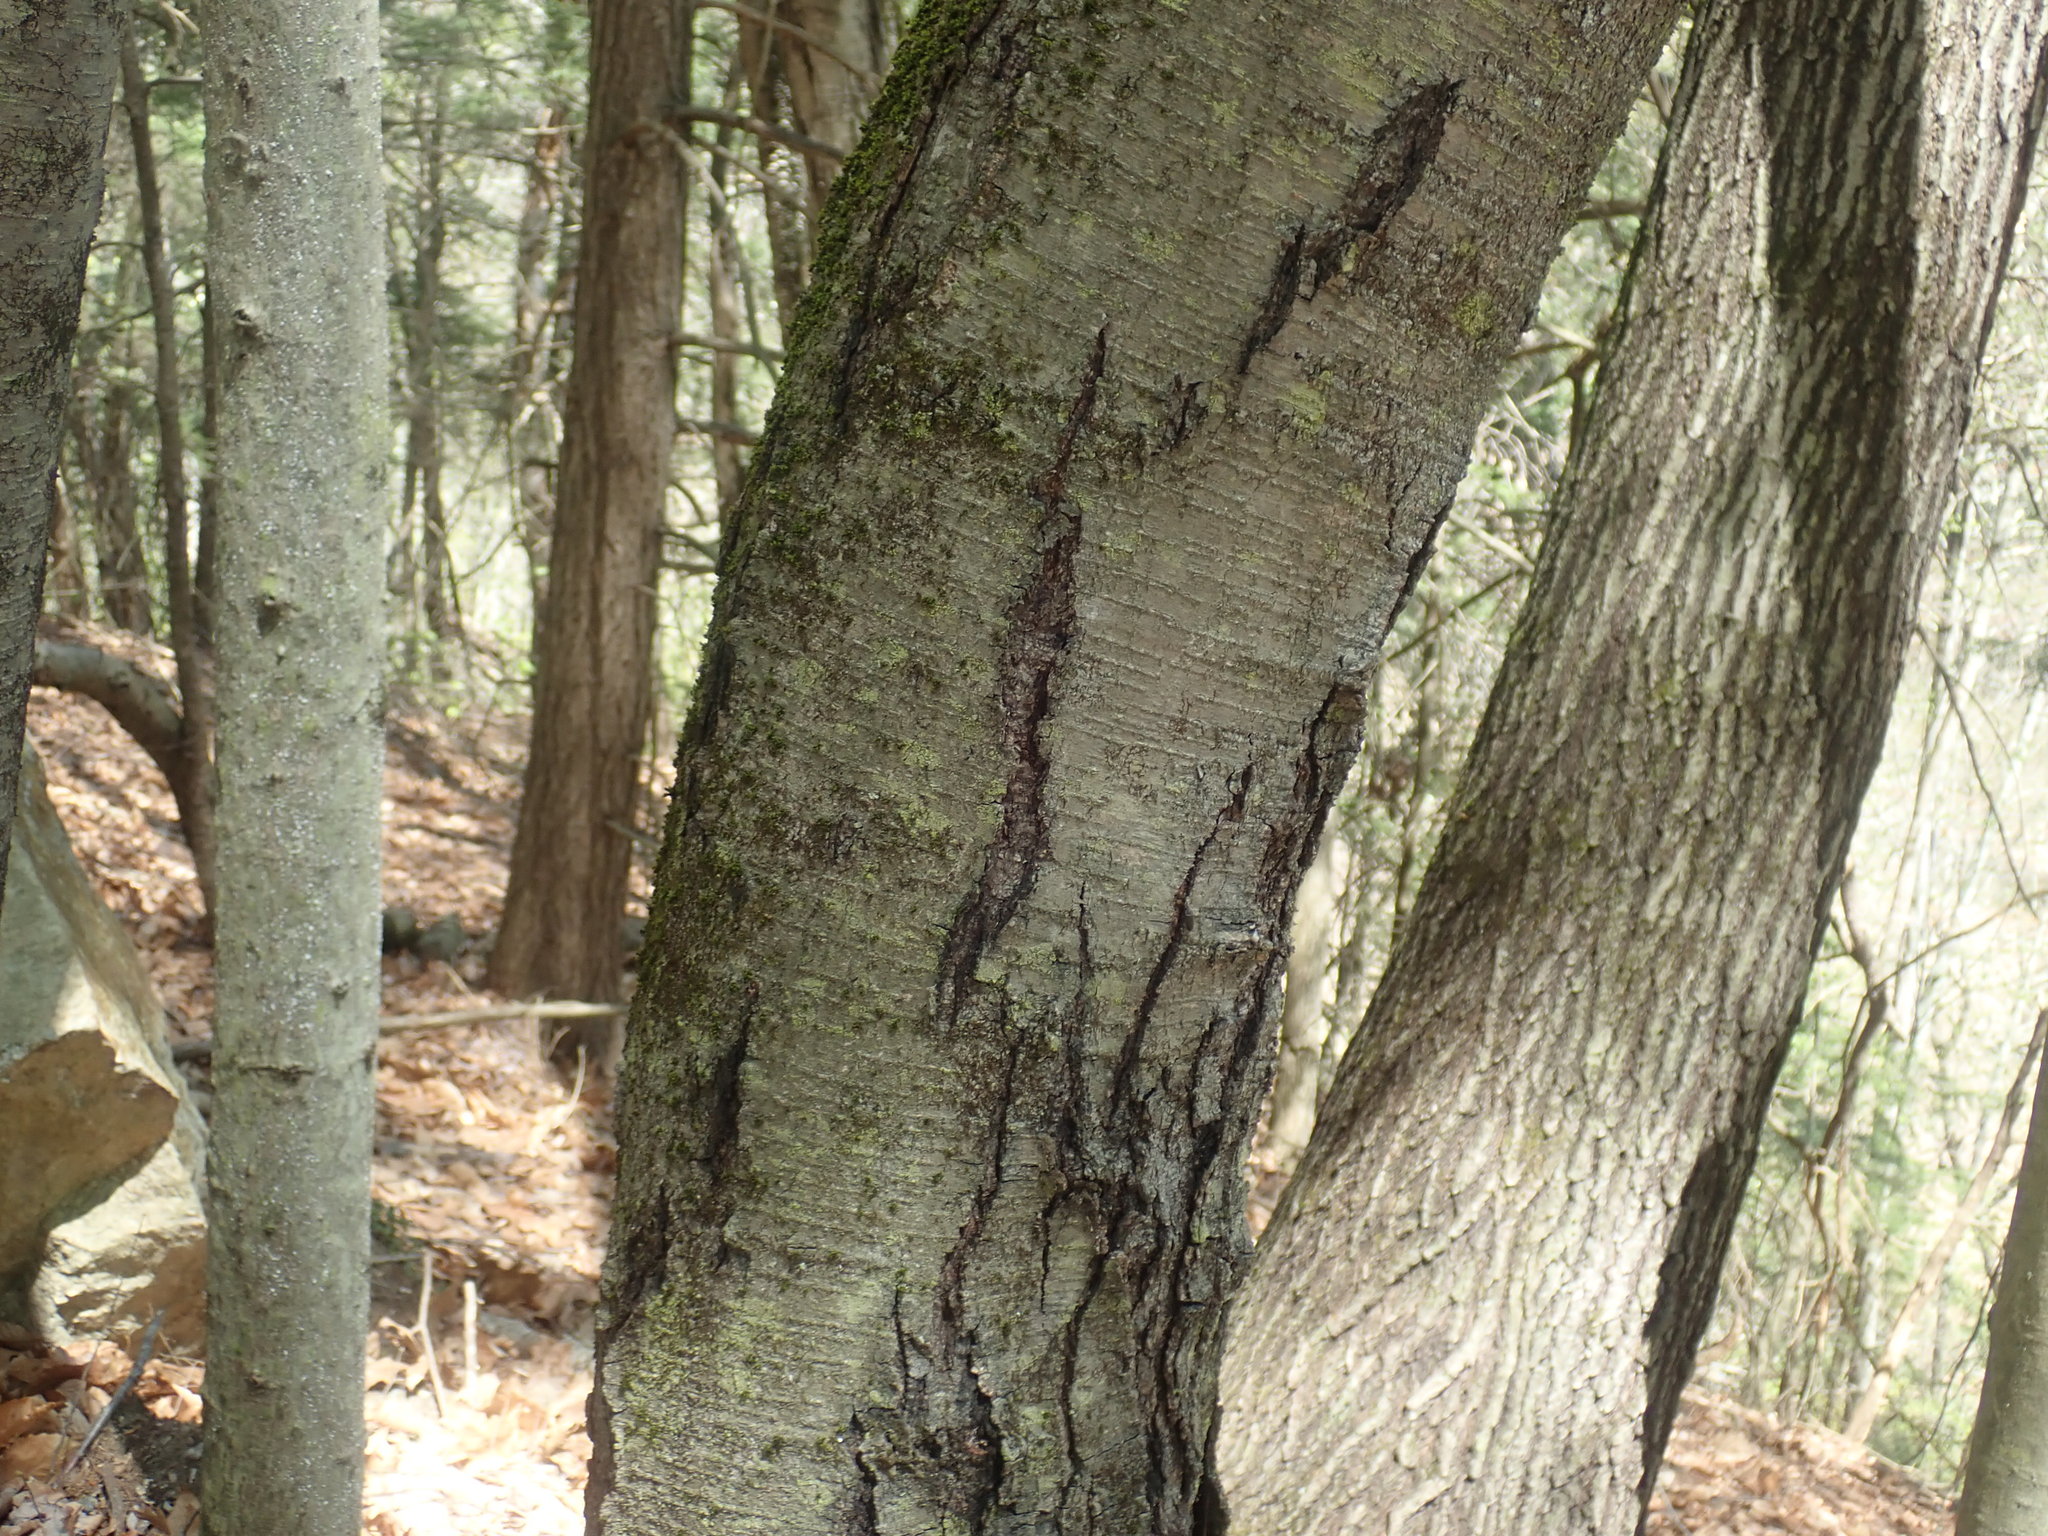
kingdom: Plantae
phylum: Tracheophyta
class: Magnoliopsida
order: Fagales
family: Betulaceae
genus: Betula
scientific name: Betula lenta
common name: Black birch
